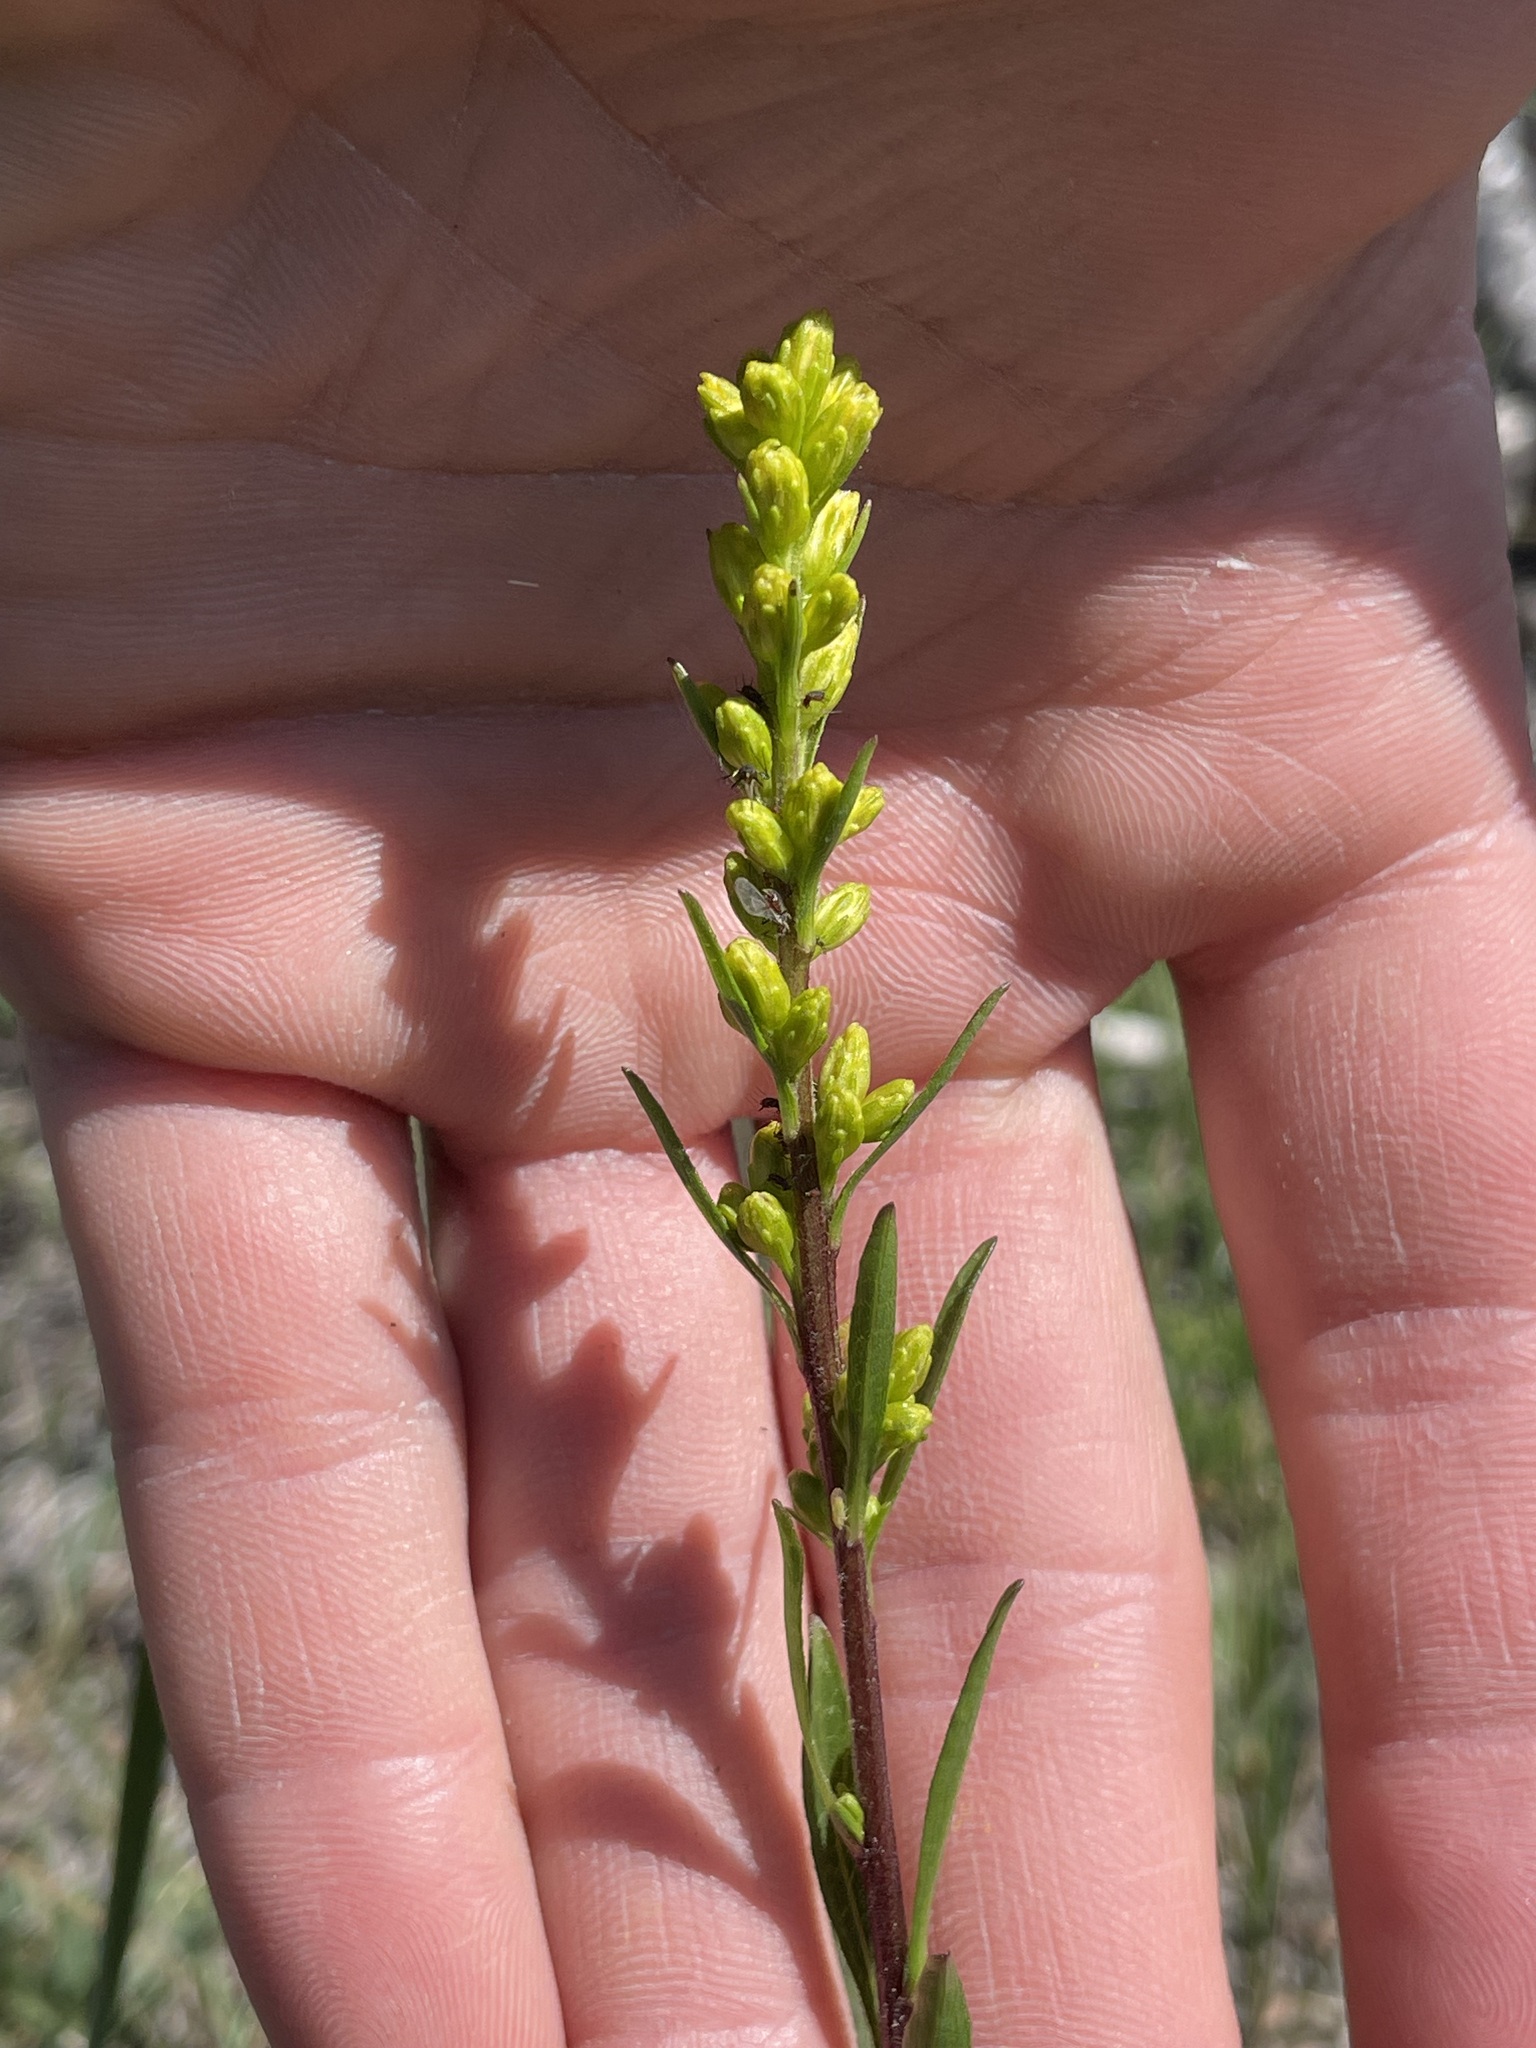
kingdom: Plantae
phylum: Tracheophyta
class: Magnoliopsida
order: Asterales
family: Asteraceae
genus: Solidago
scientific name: Solidago glutinosa
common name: Decumbent goldenrod
